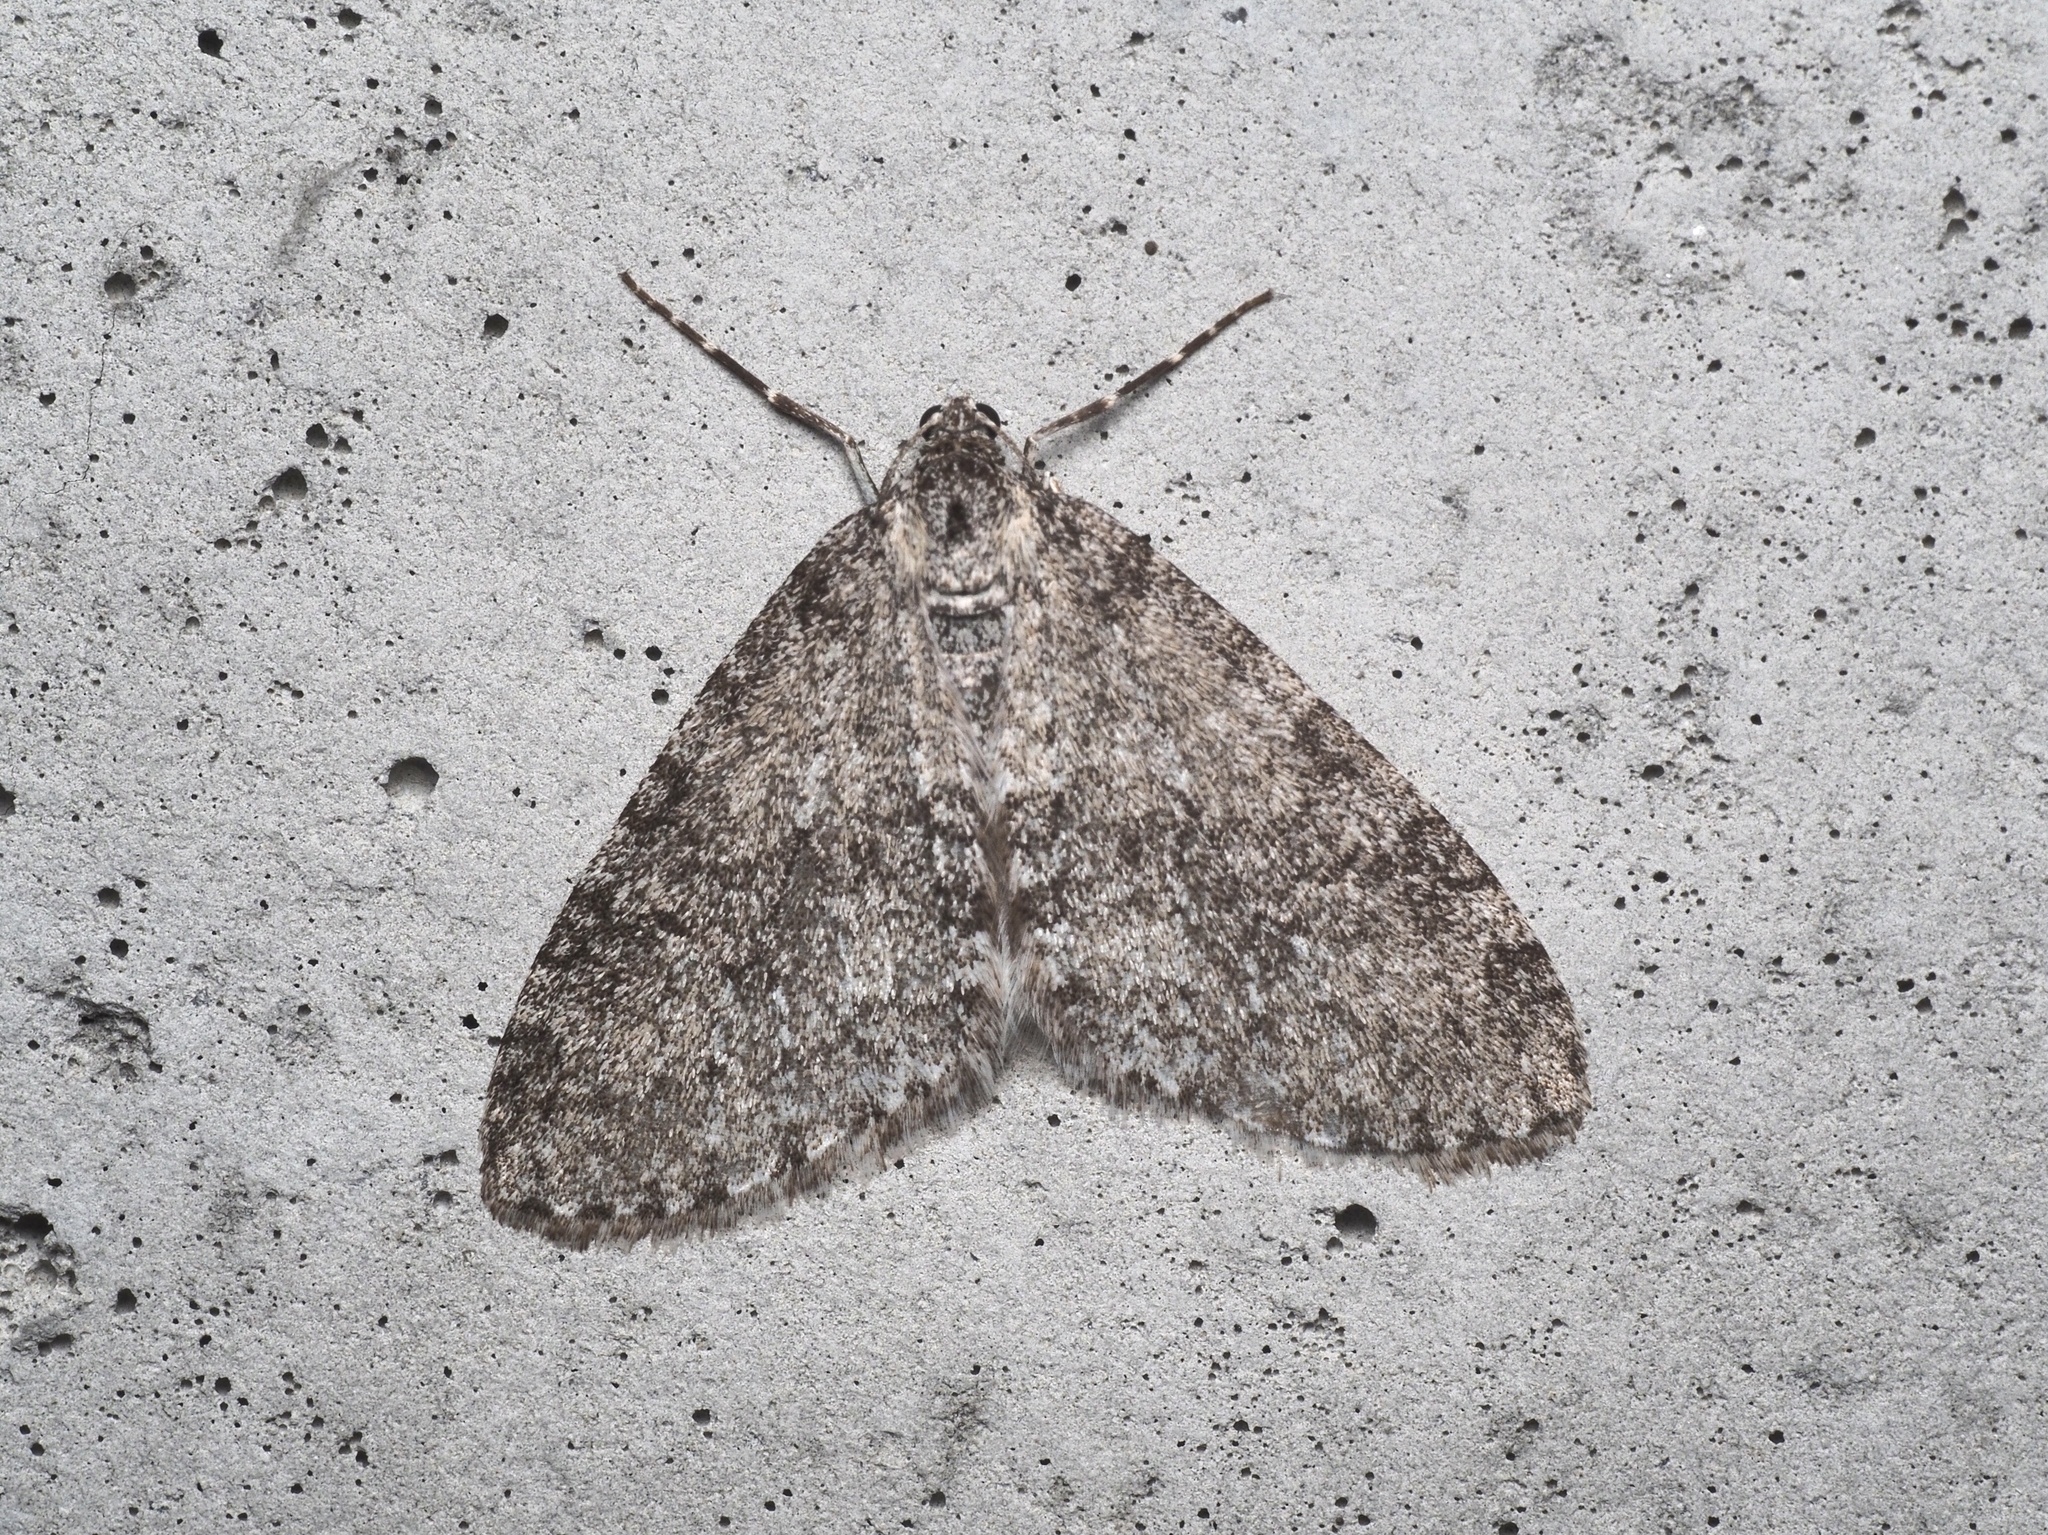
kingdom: Animalia
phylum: Arthropoda
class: Insecta
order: Lepidoptera
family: Geometridae
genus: Trichopteryx
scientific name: Trichopteryx carpinata
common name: Early tooth-striped
